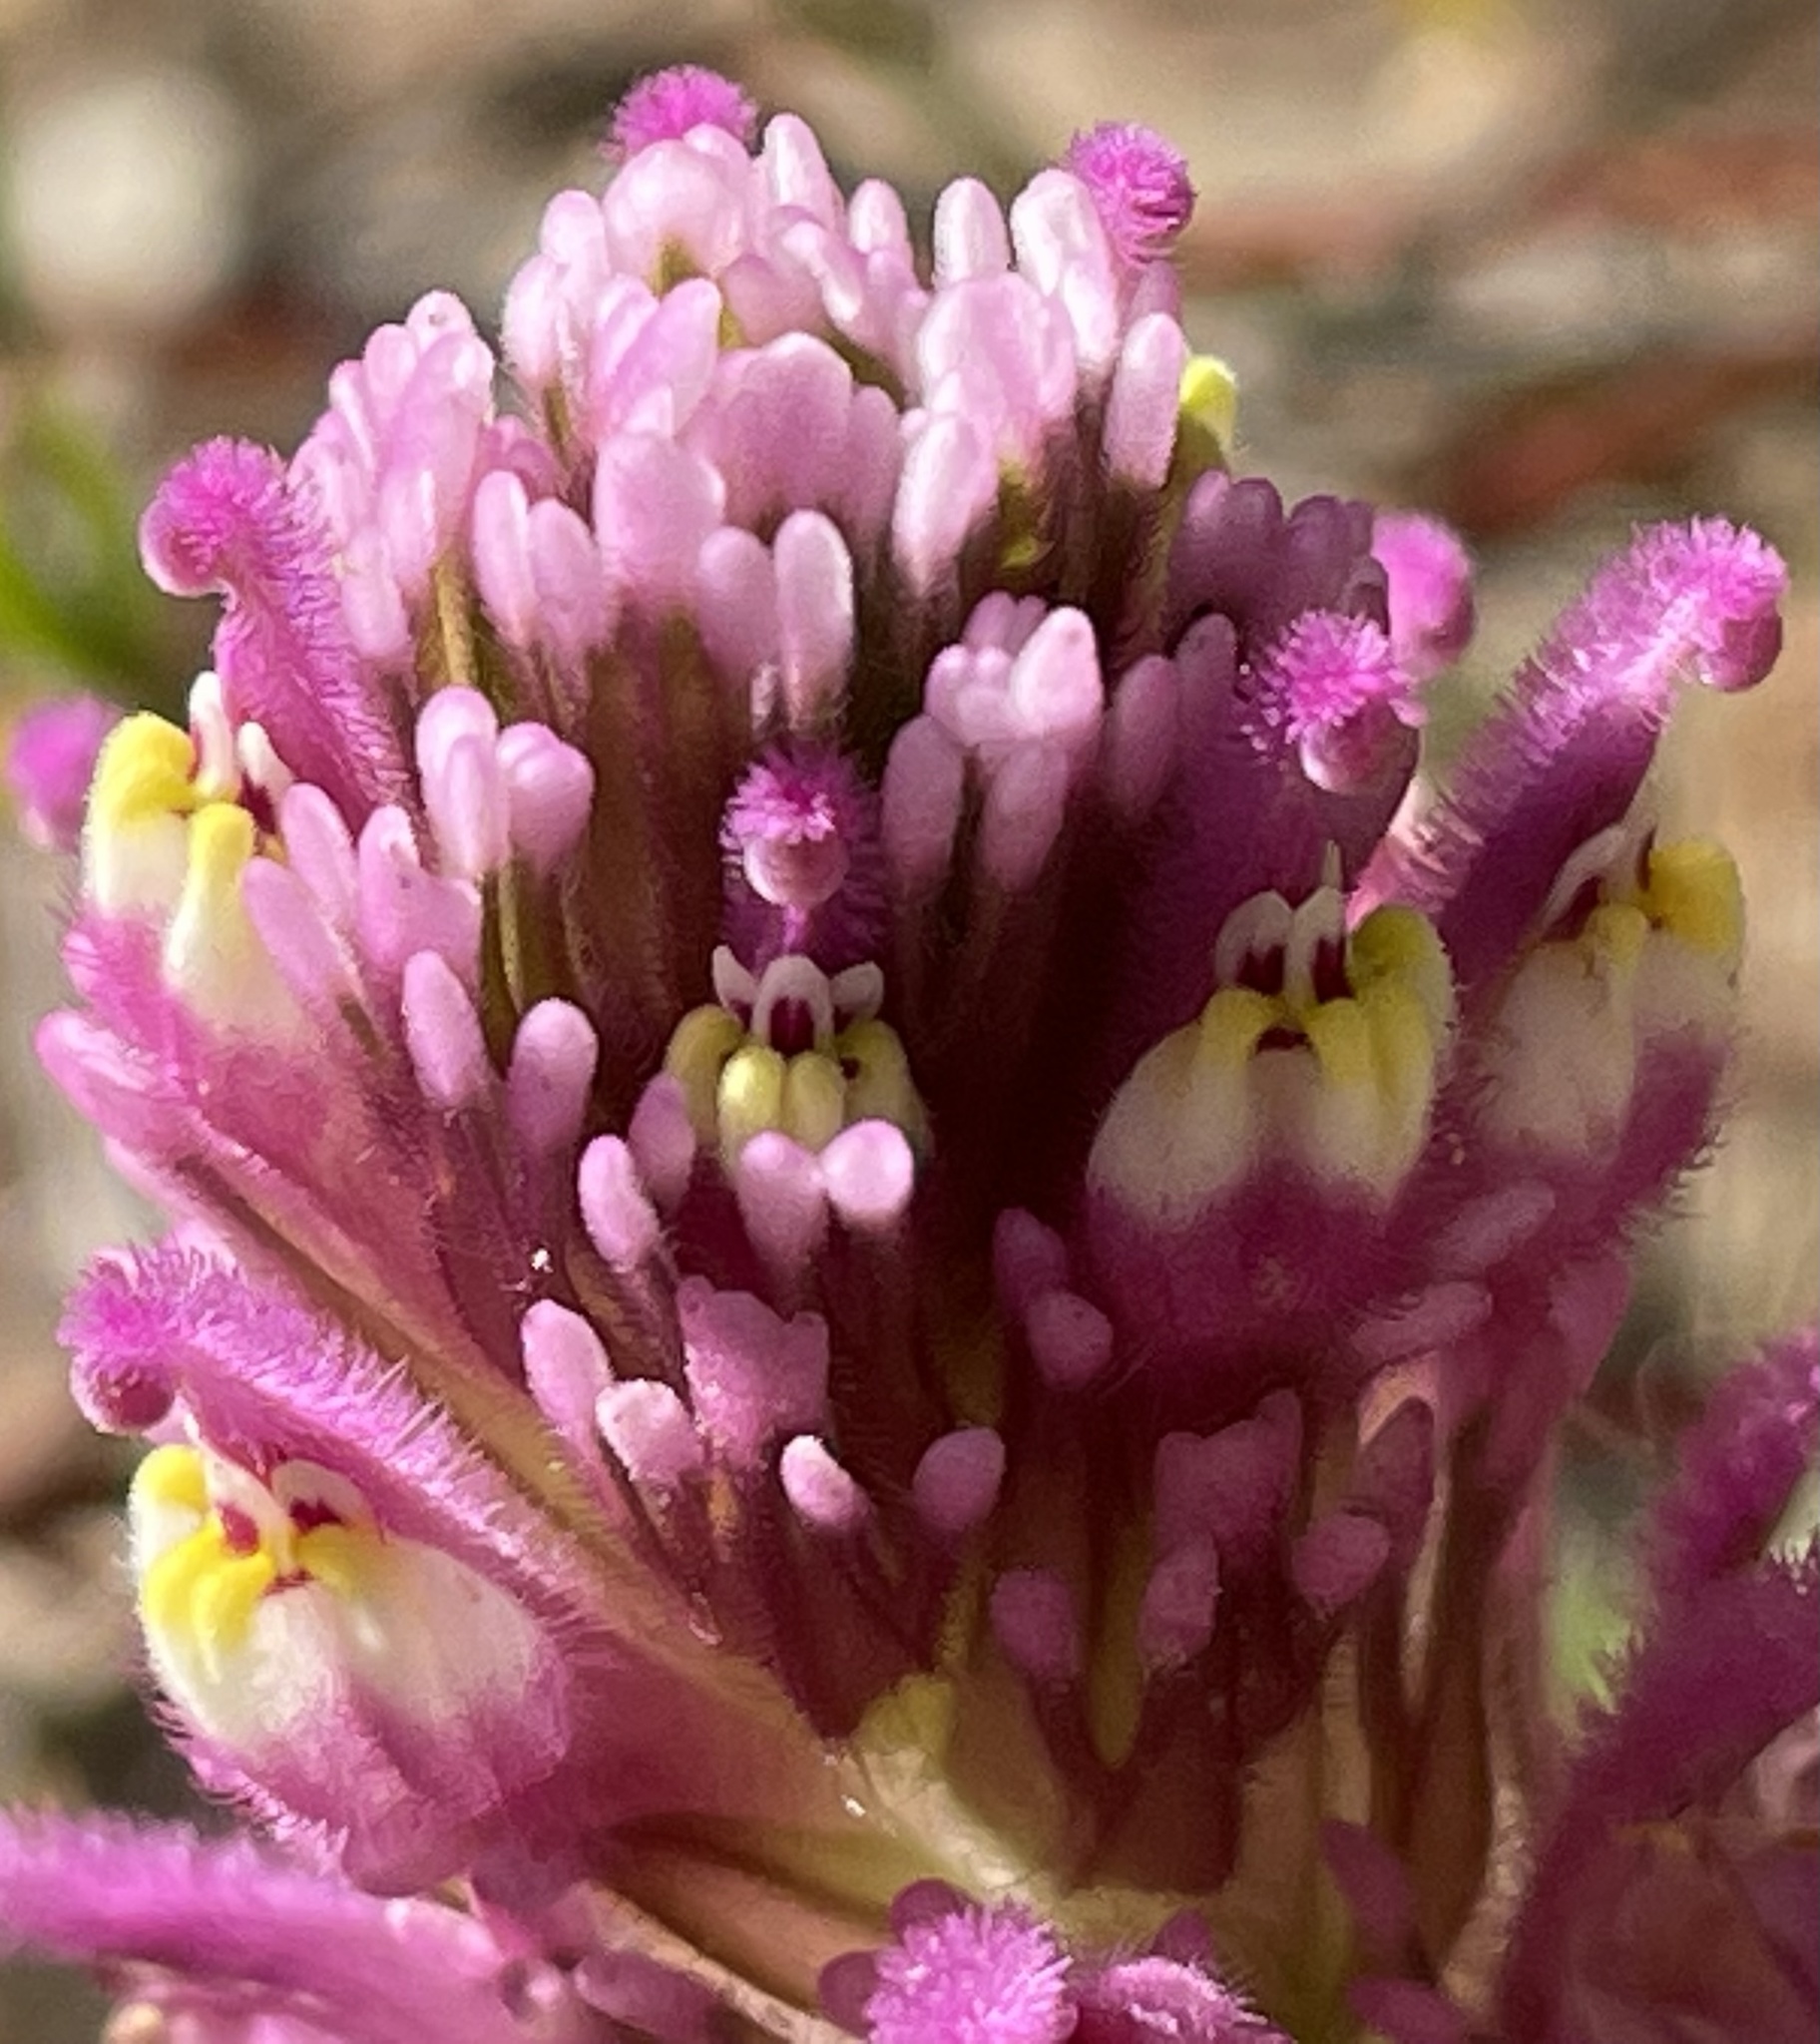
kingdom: Plantae
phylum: Tracheophyta
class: Magnoliopsida
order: Lamiales
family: Orobanchaceae
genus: Castilleja
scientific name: Castilleja exserta
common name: Purple owl-clover
